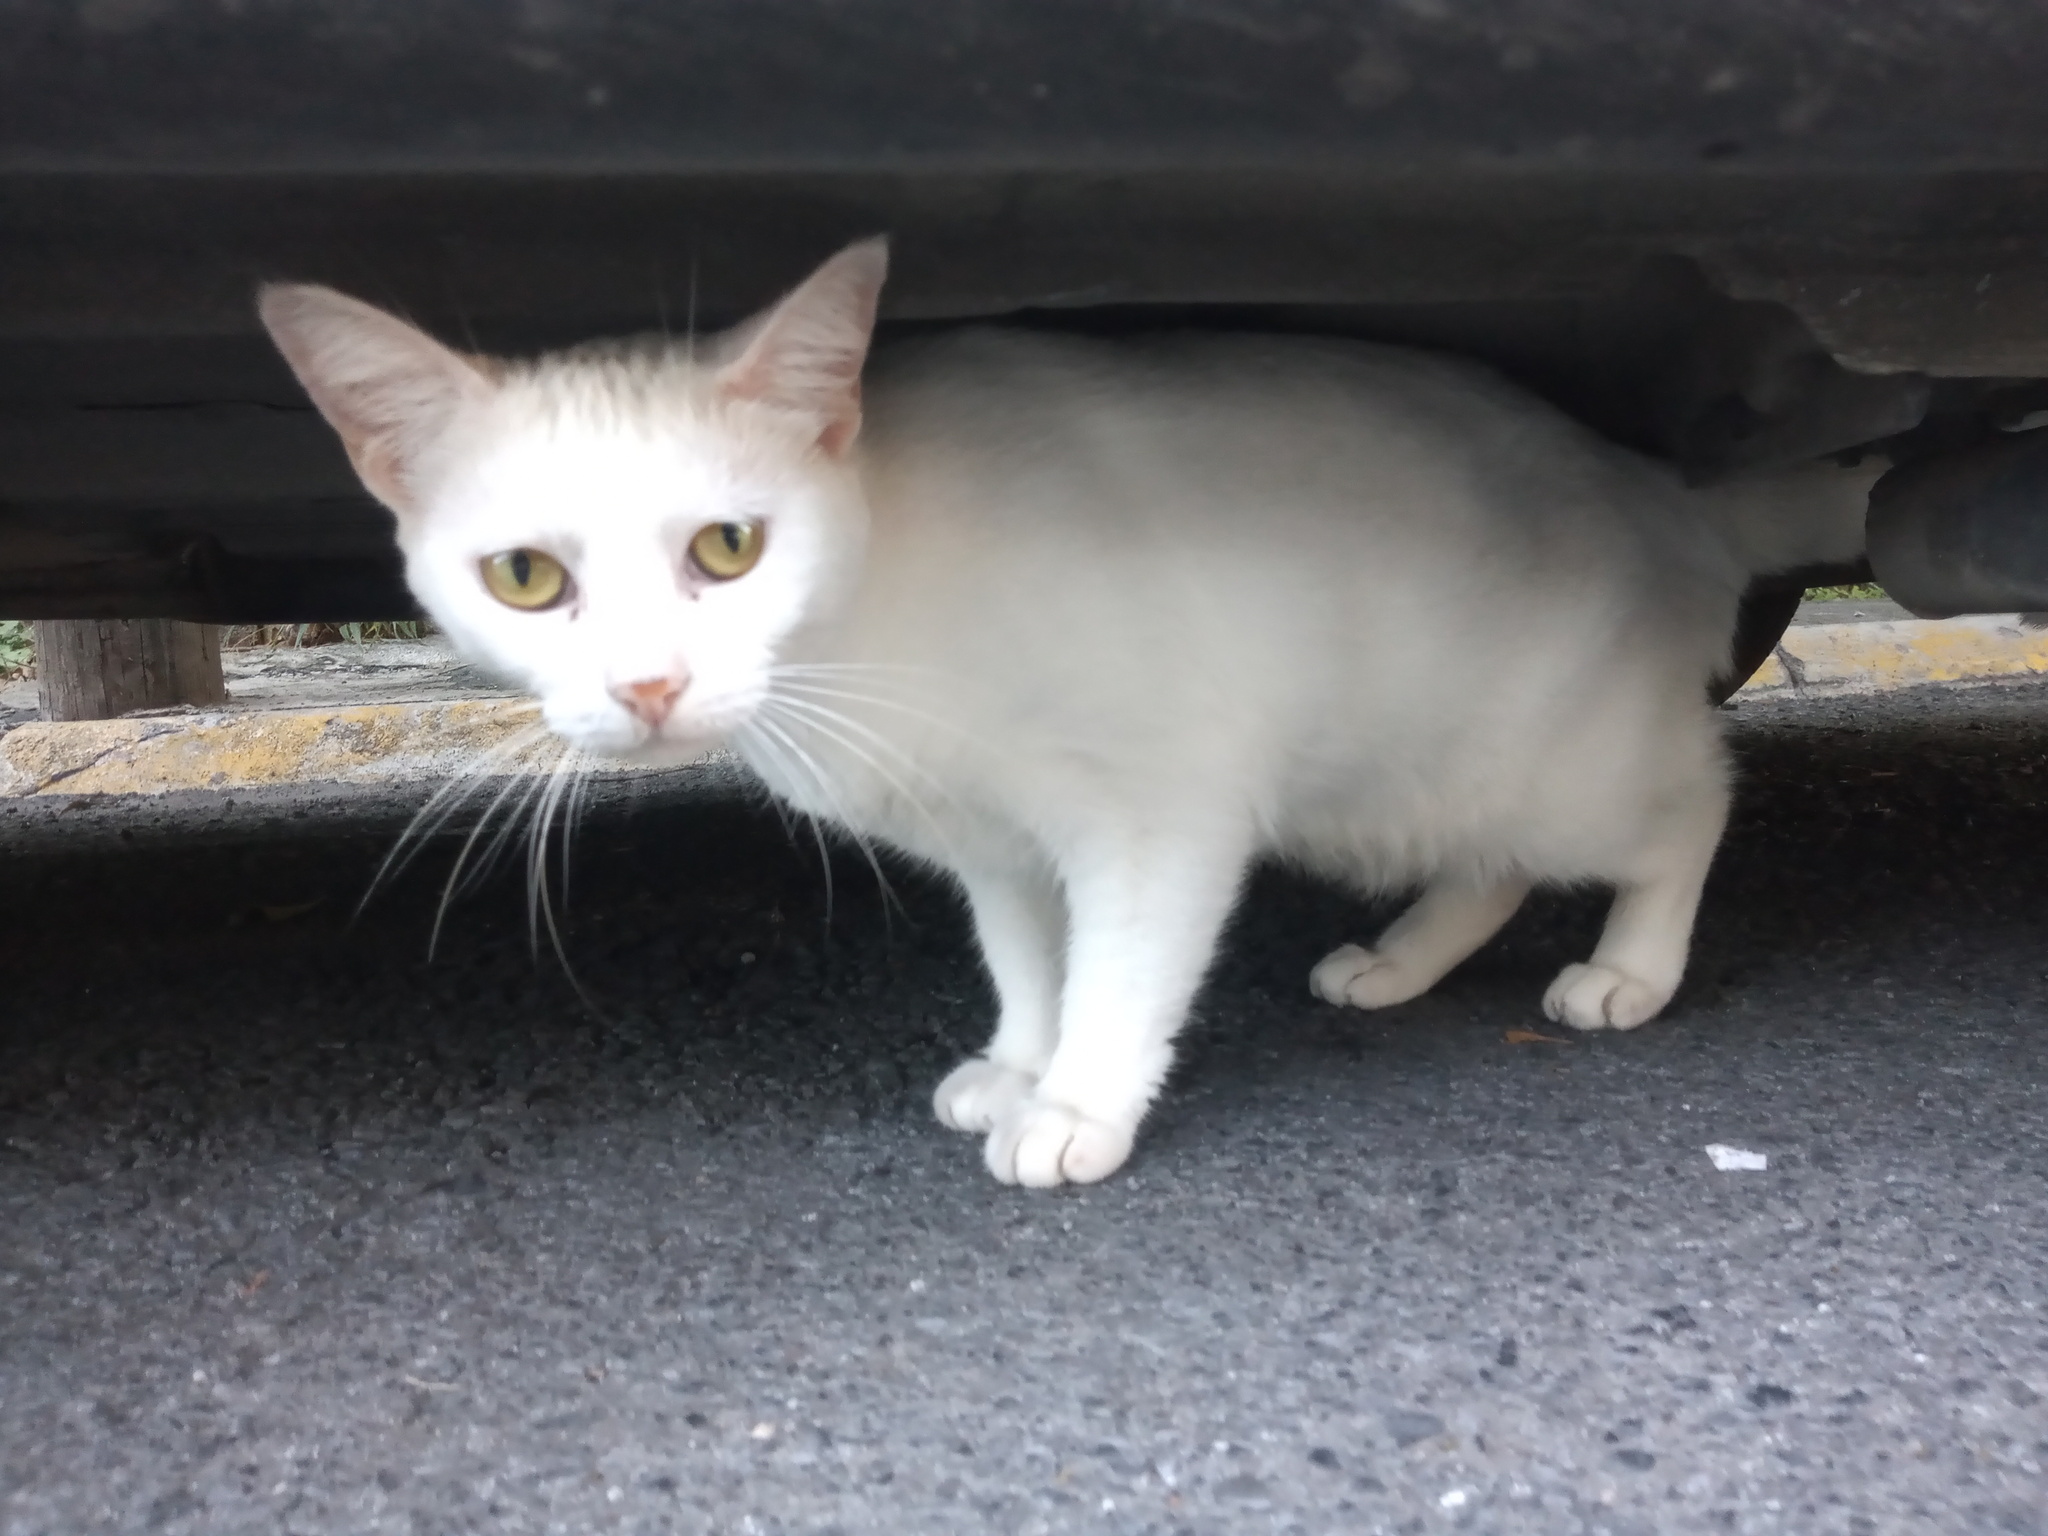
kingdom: Animalia
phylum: Chordata
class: Mammalia
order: Carnivora
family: Felidae
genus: Felis
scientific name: Felis catus
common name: Domestic cat
